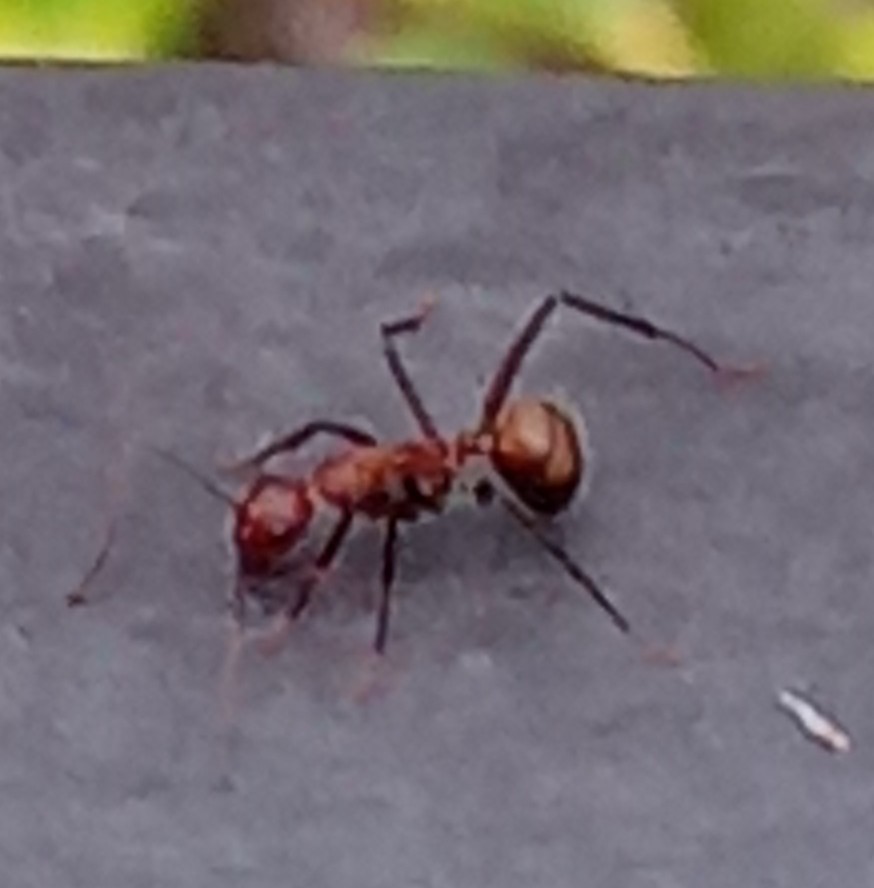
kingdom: Animalia
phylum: Arthropoda
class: Insecta
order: Hymenoptera
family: Formicidae
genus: Camponotus
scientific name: Camponotus nicobarensis
